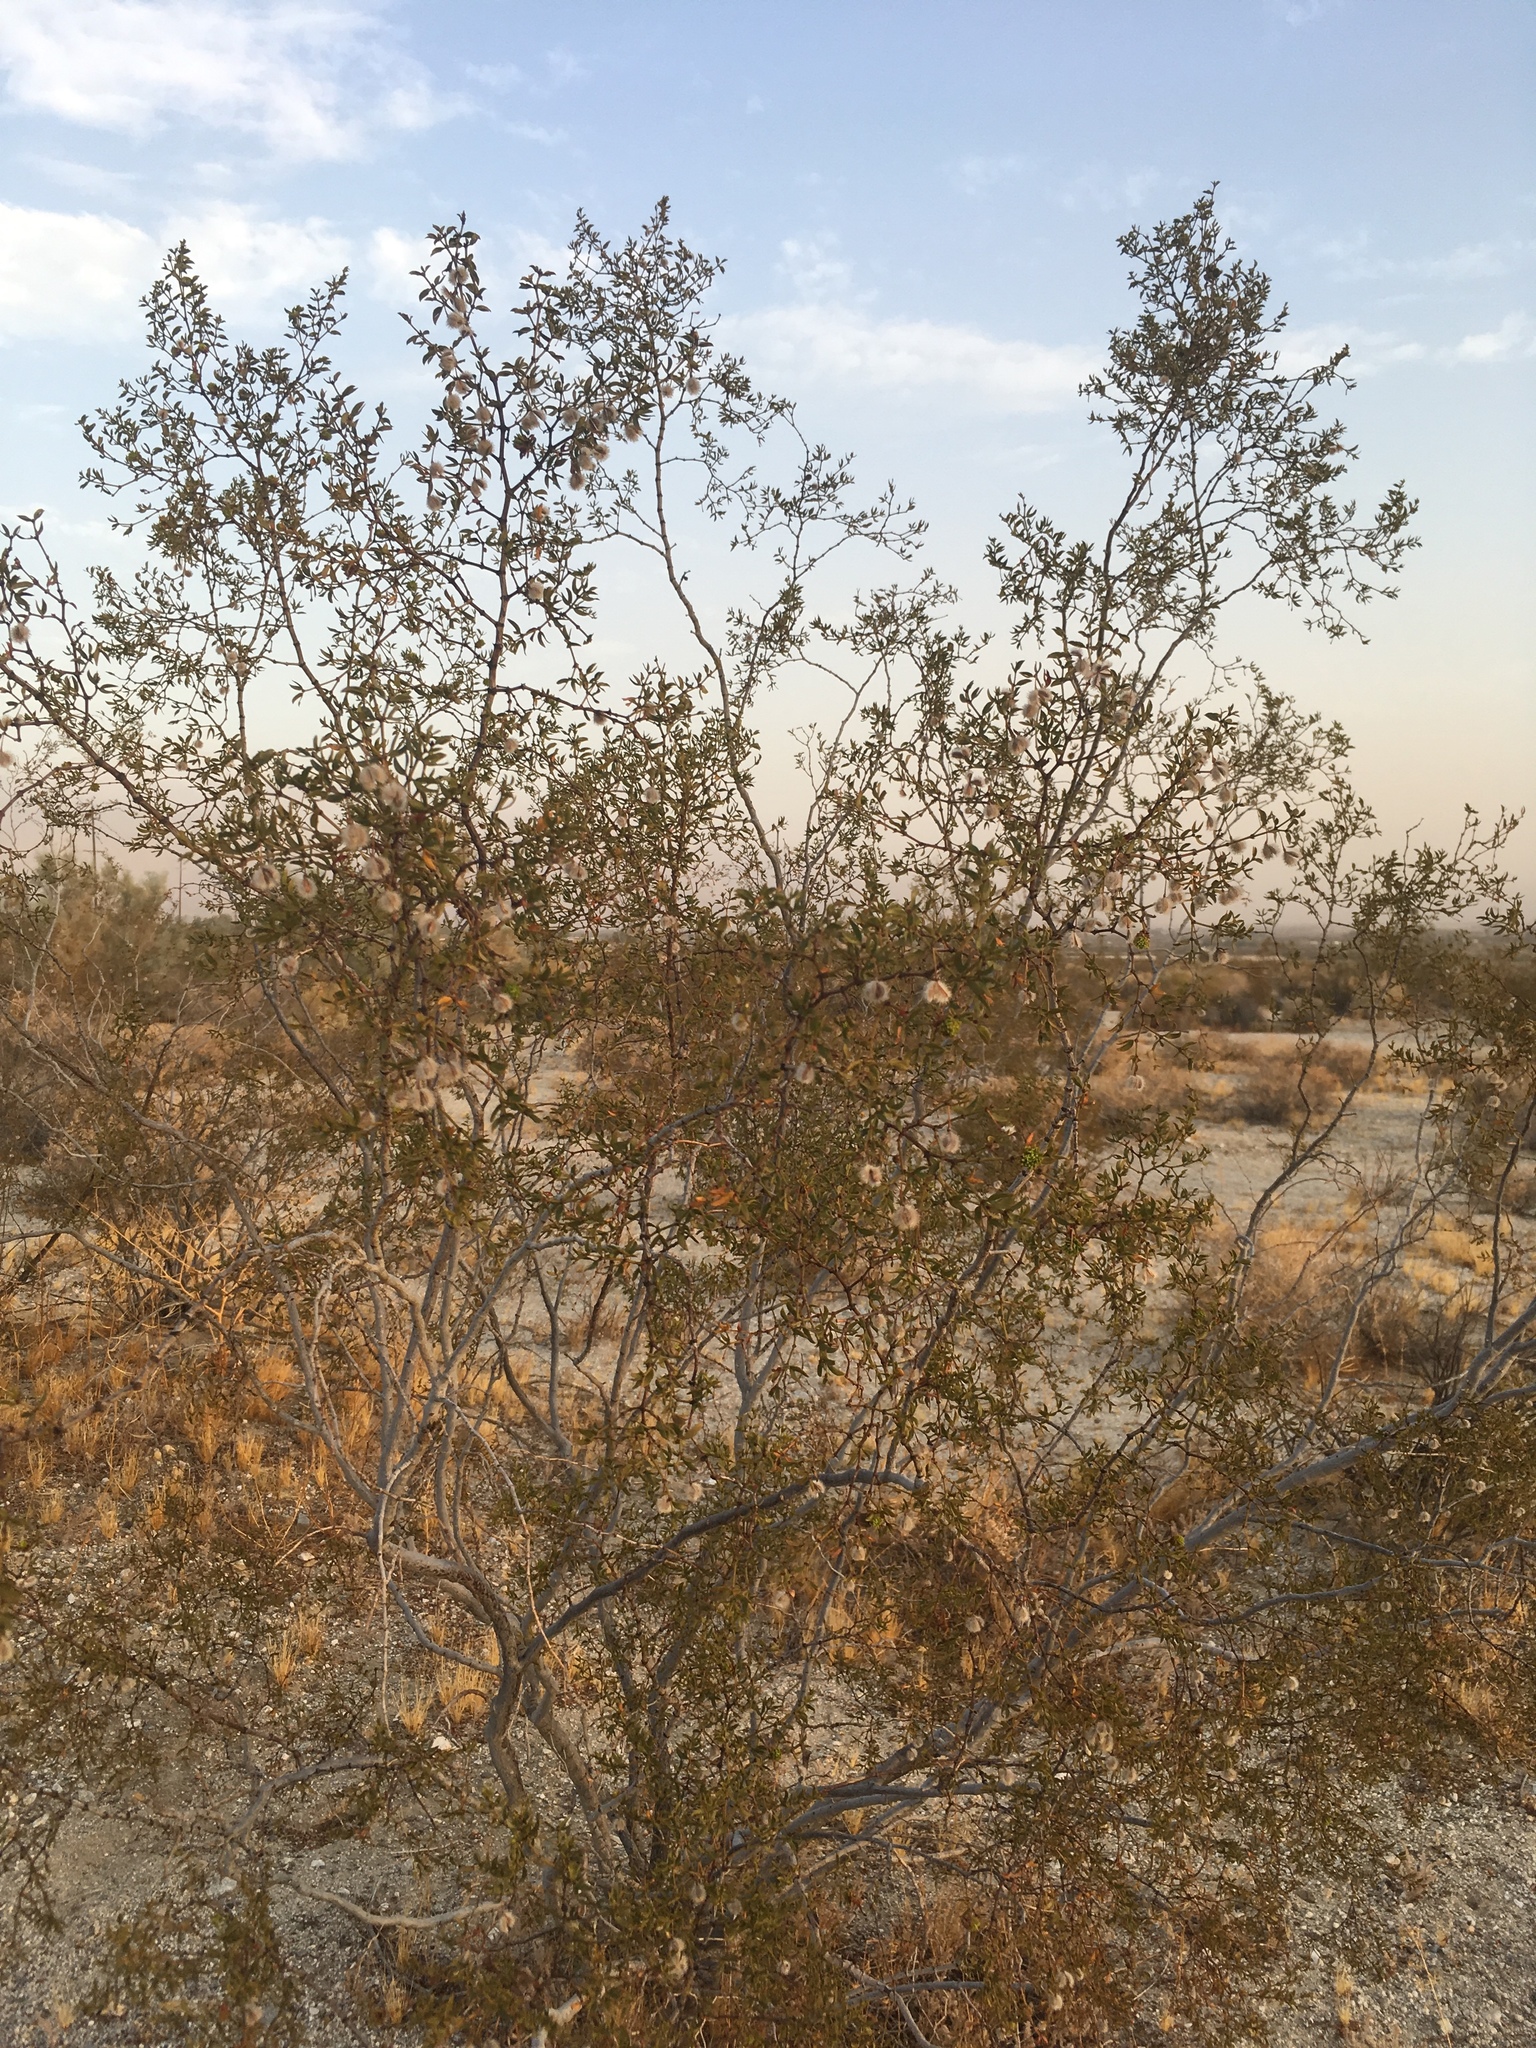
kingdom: Plantae
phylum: Tracheophyta
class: Magnoliopsida
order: Zygophyllales
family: Zygophyllaceae
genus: Larrea
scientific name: Larrea tridentata
